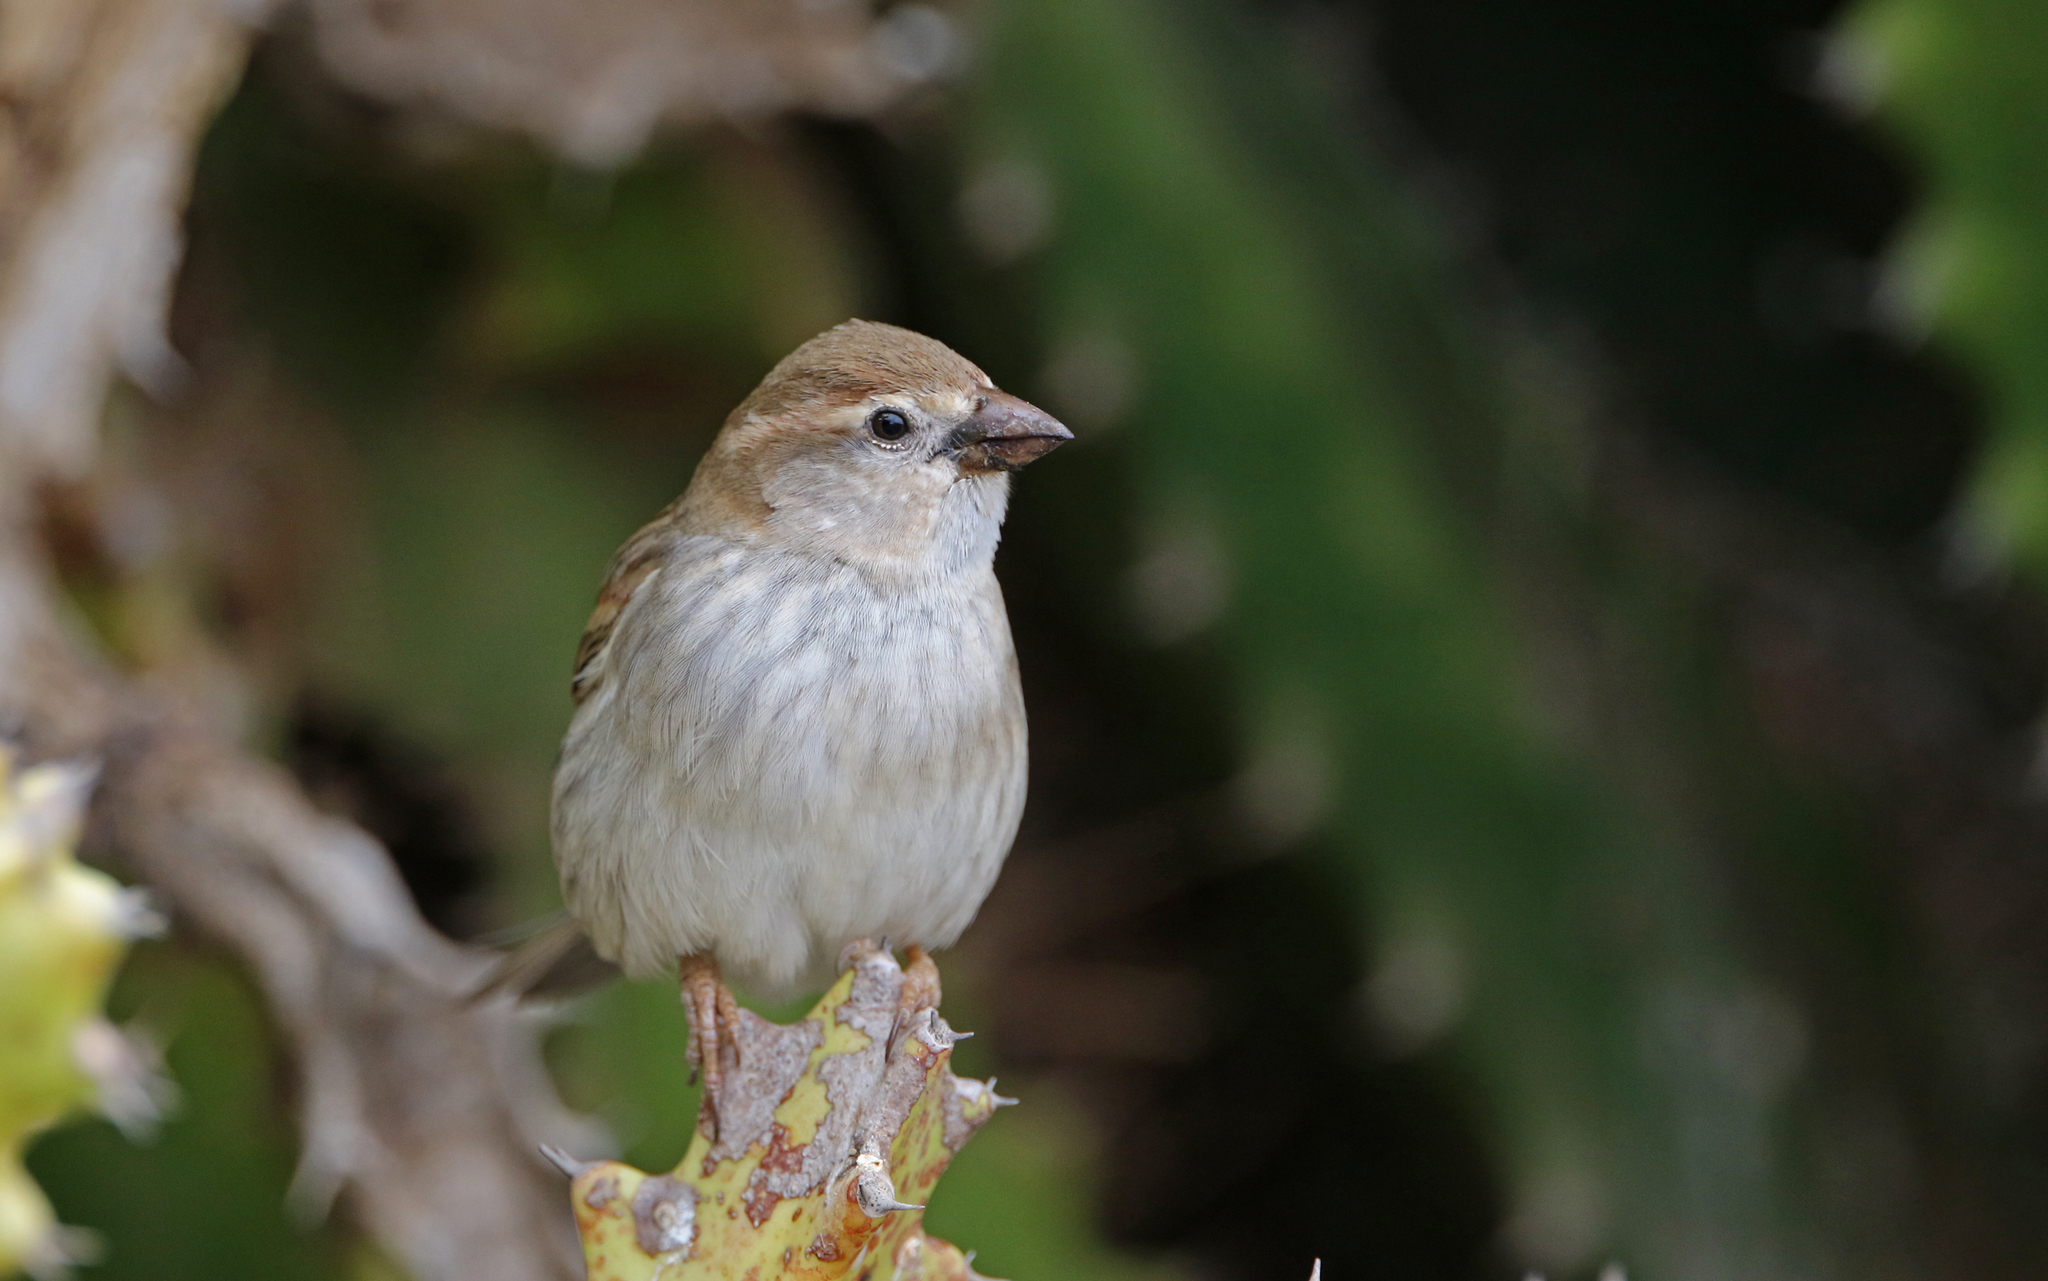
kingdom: Animalia
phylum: Chordata
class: Aves
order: Passeriformes
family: Passeridae
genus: Passer
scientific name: Passer hispaniolensis
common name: Spanish sparrow
